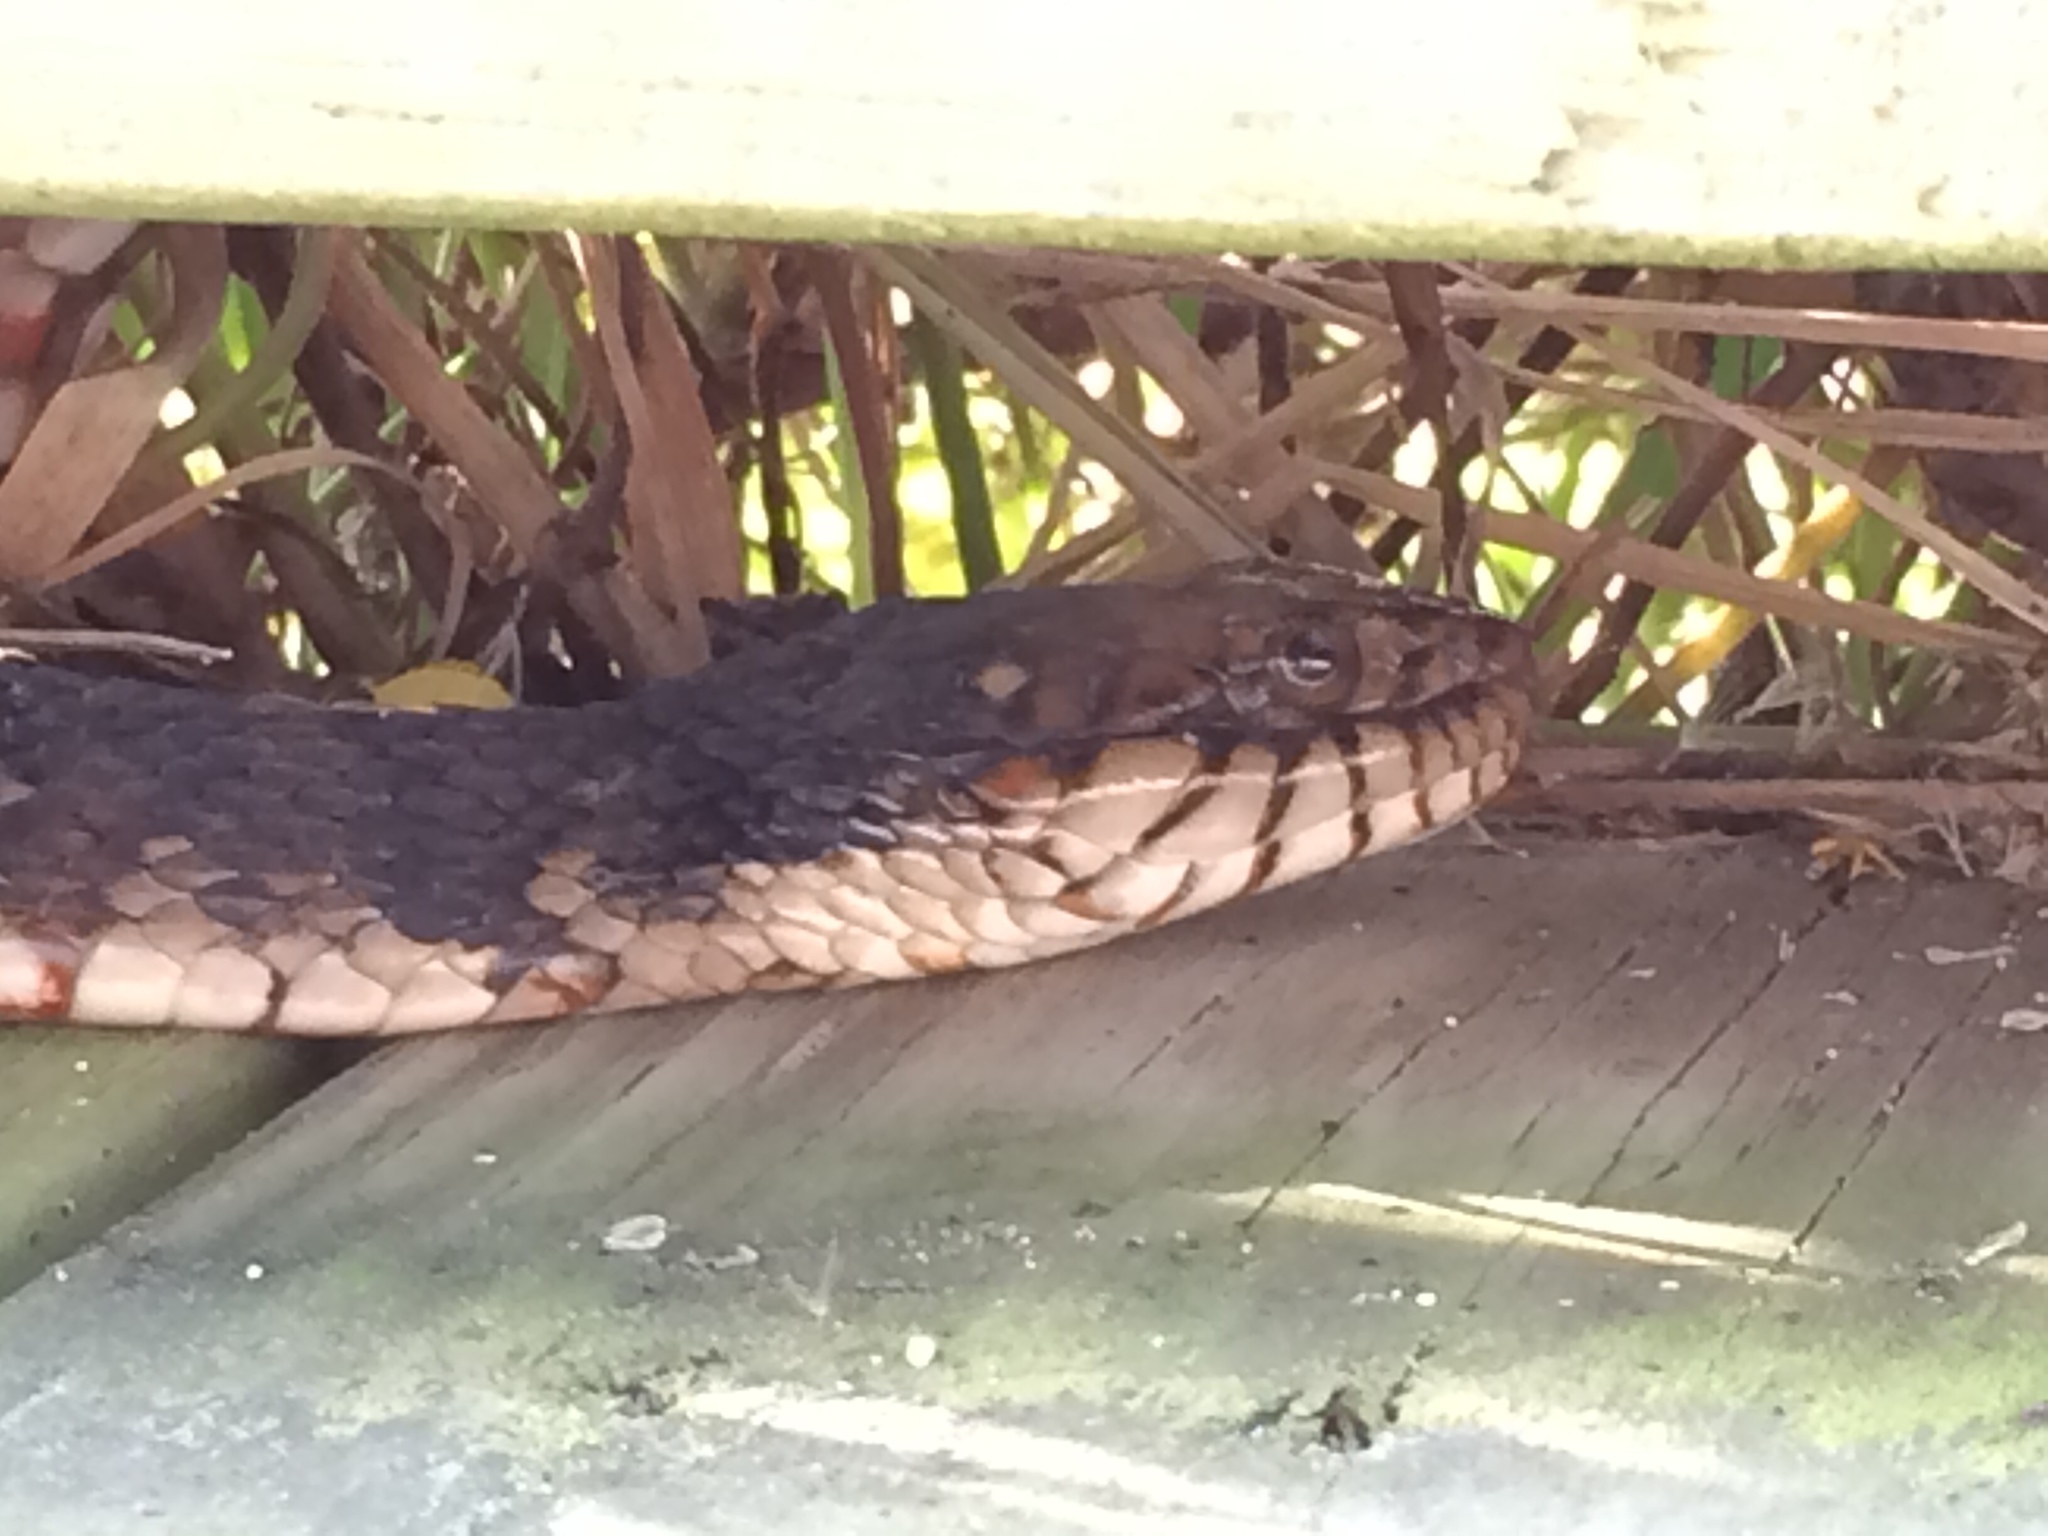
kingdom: Animalia
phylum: Chordata
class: Squamata
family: Colubridae
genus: Nerodia
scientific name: Nerodia fasciata
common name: Southern water snake
